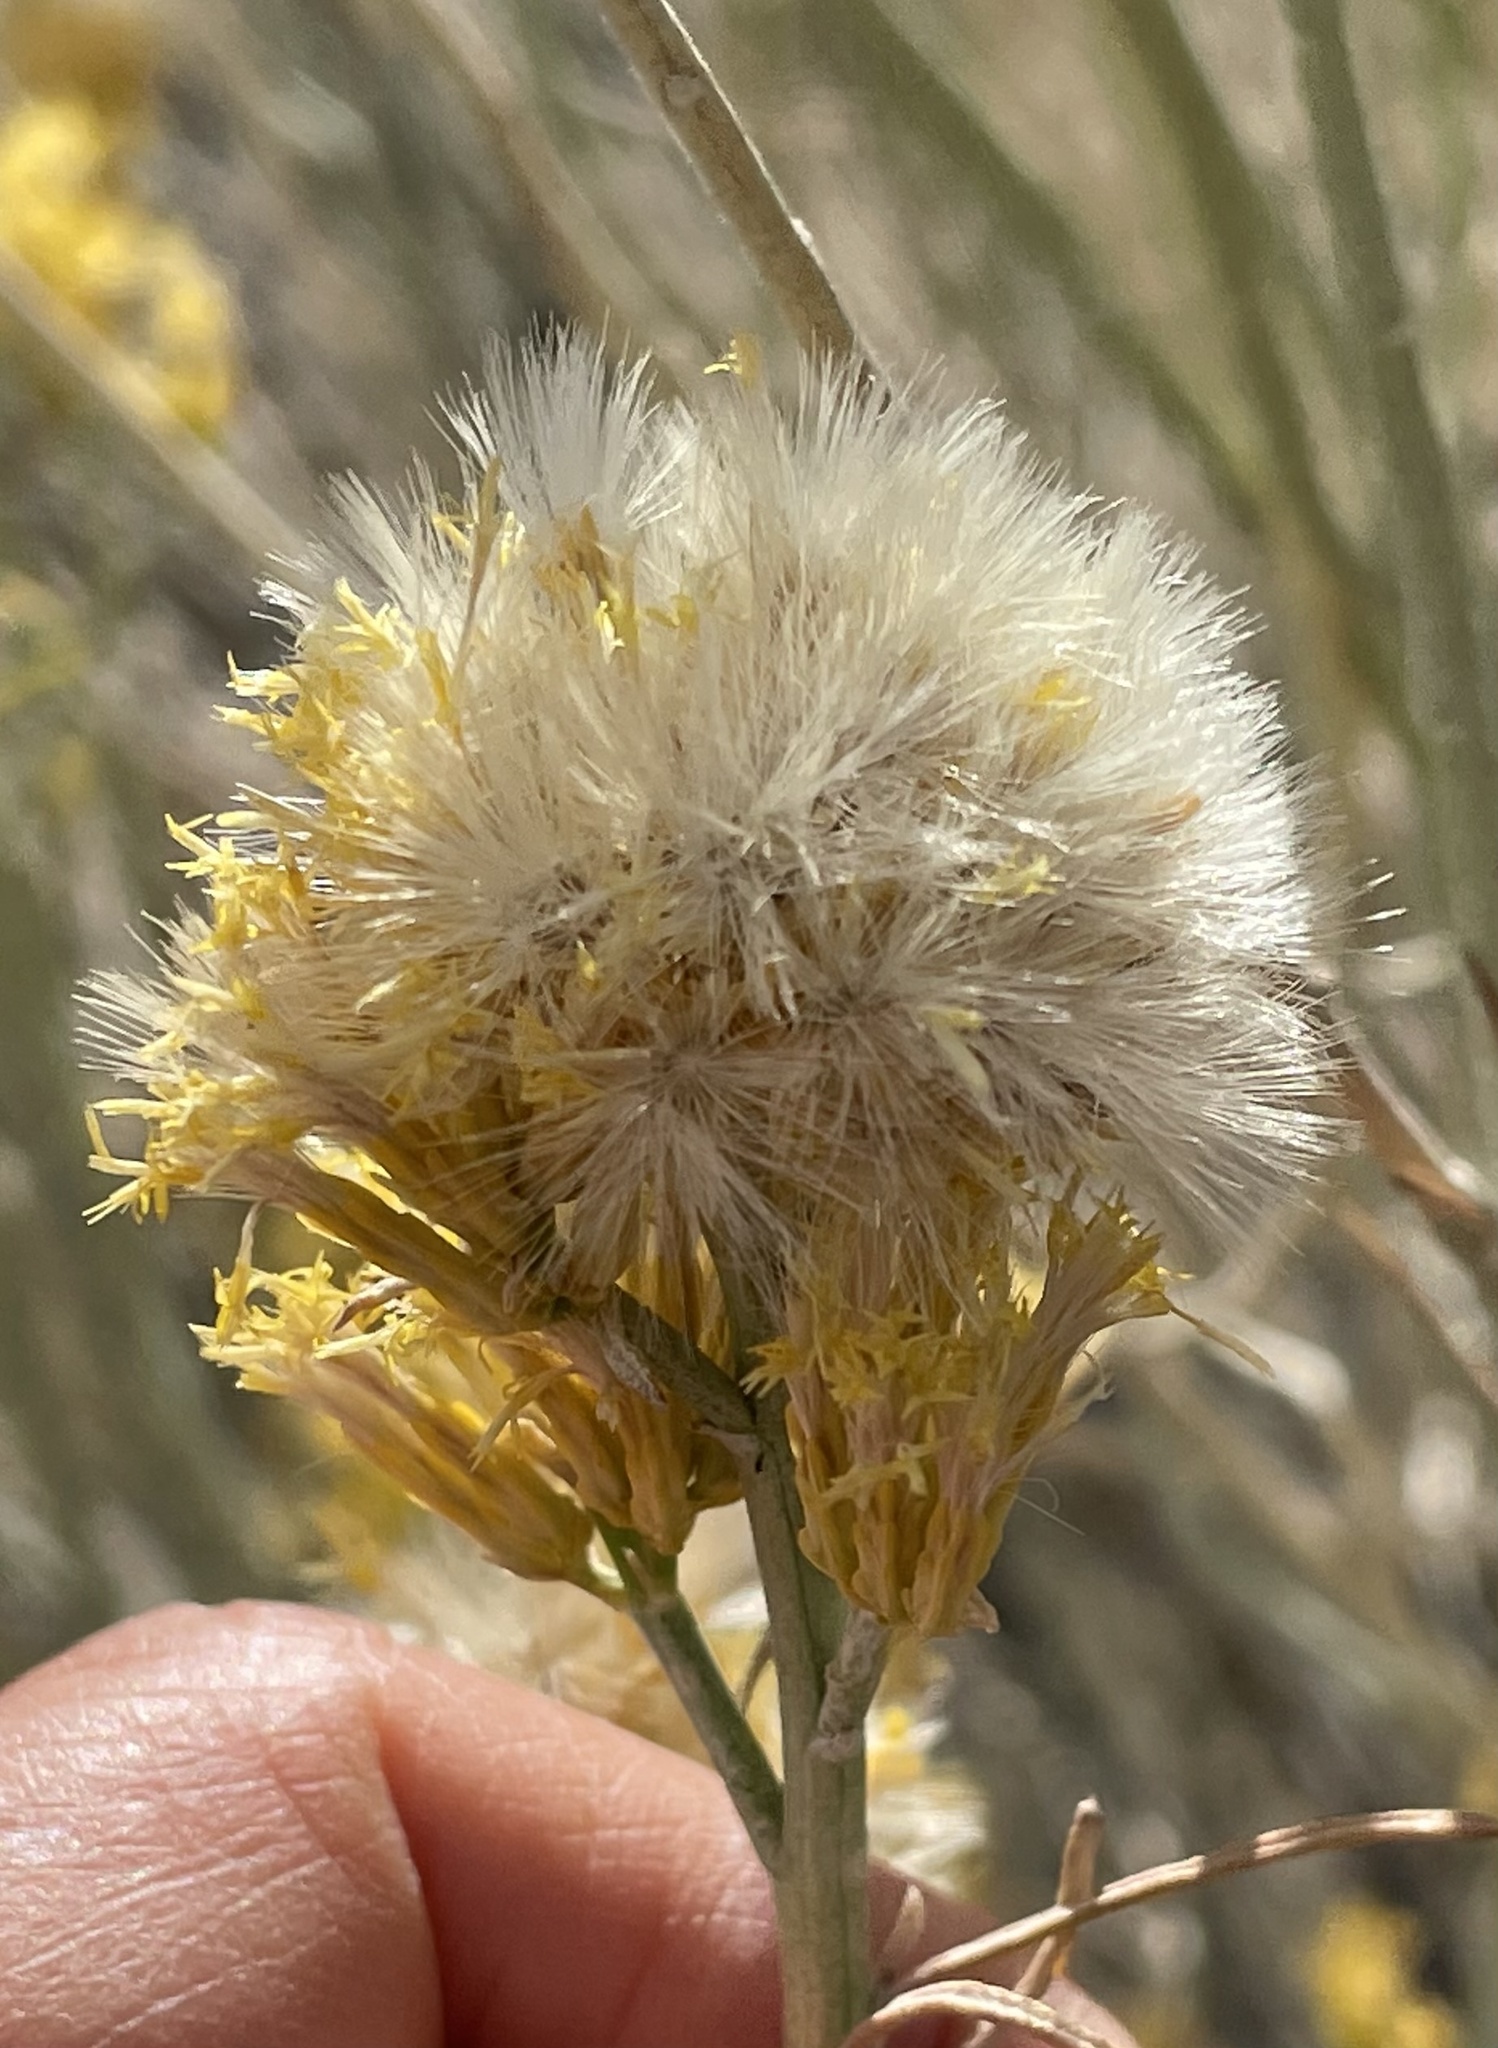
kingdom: Plantae
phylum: Tracheophyta
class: Magnoliopsida
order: Asterales
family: Asteraceae
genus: Ericameria
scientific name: Ericameria nauseosa
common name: Rubber rabbitbrush
